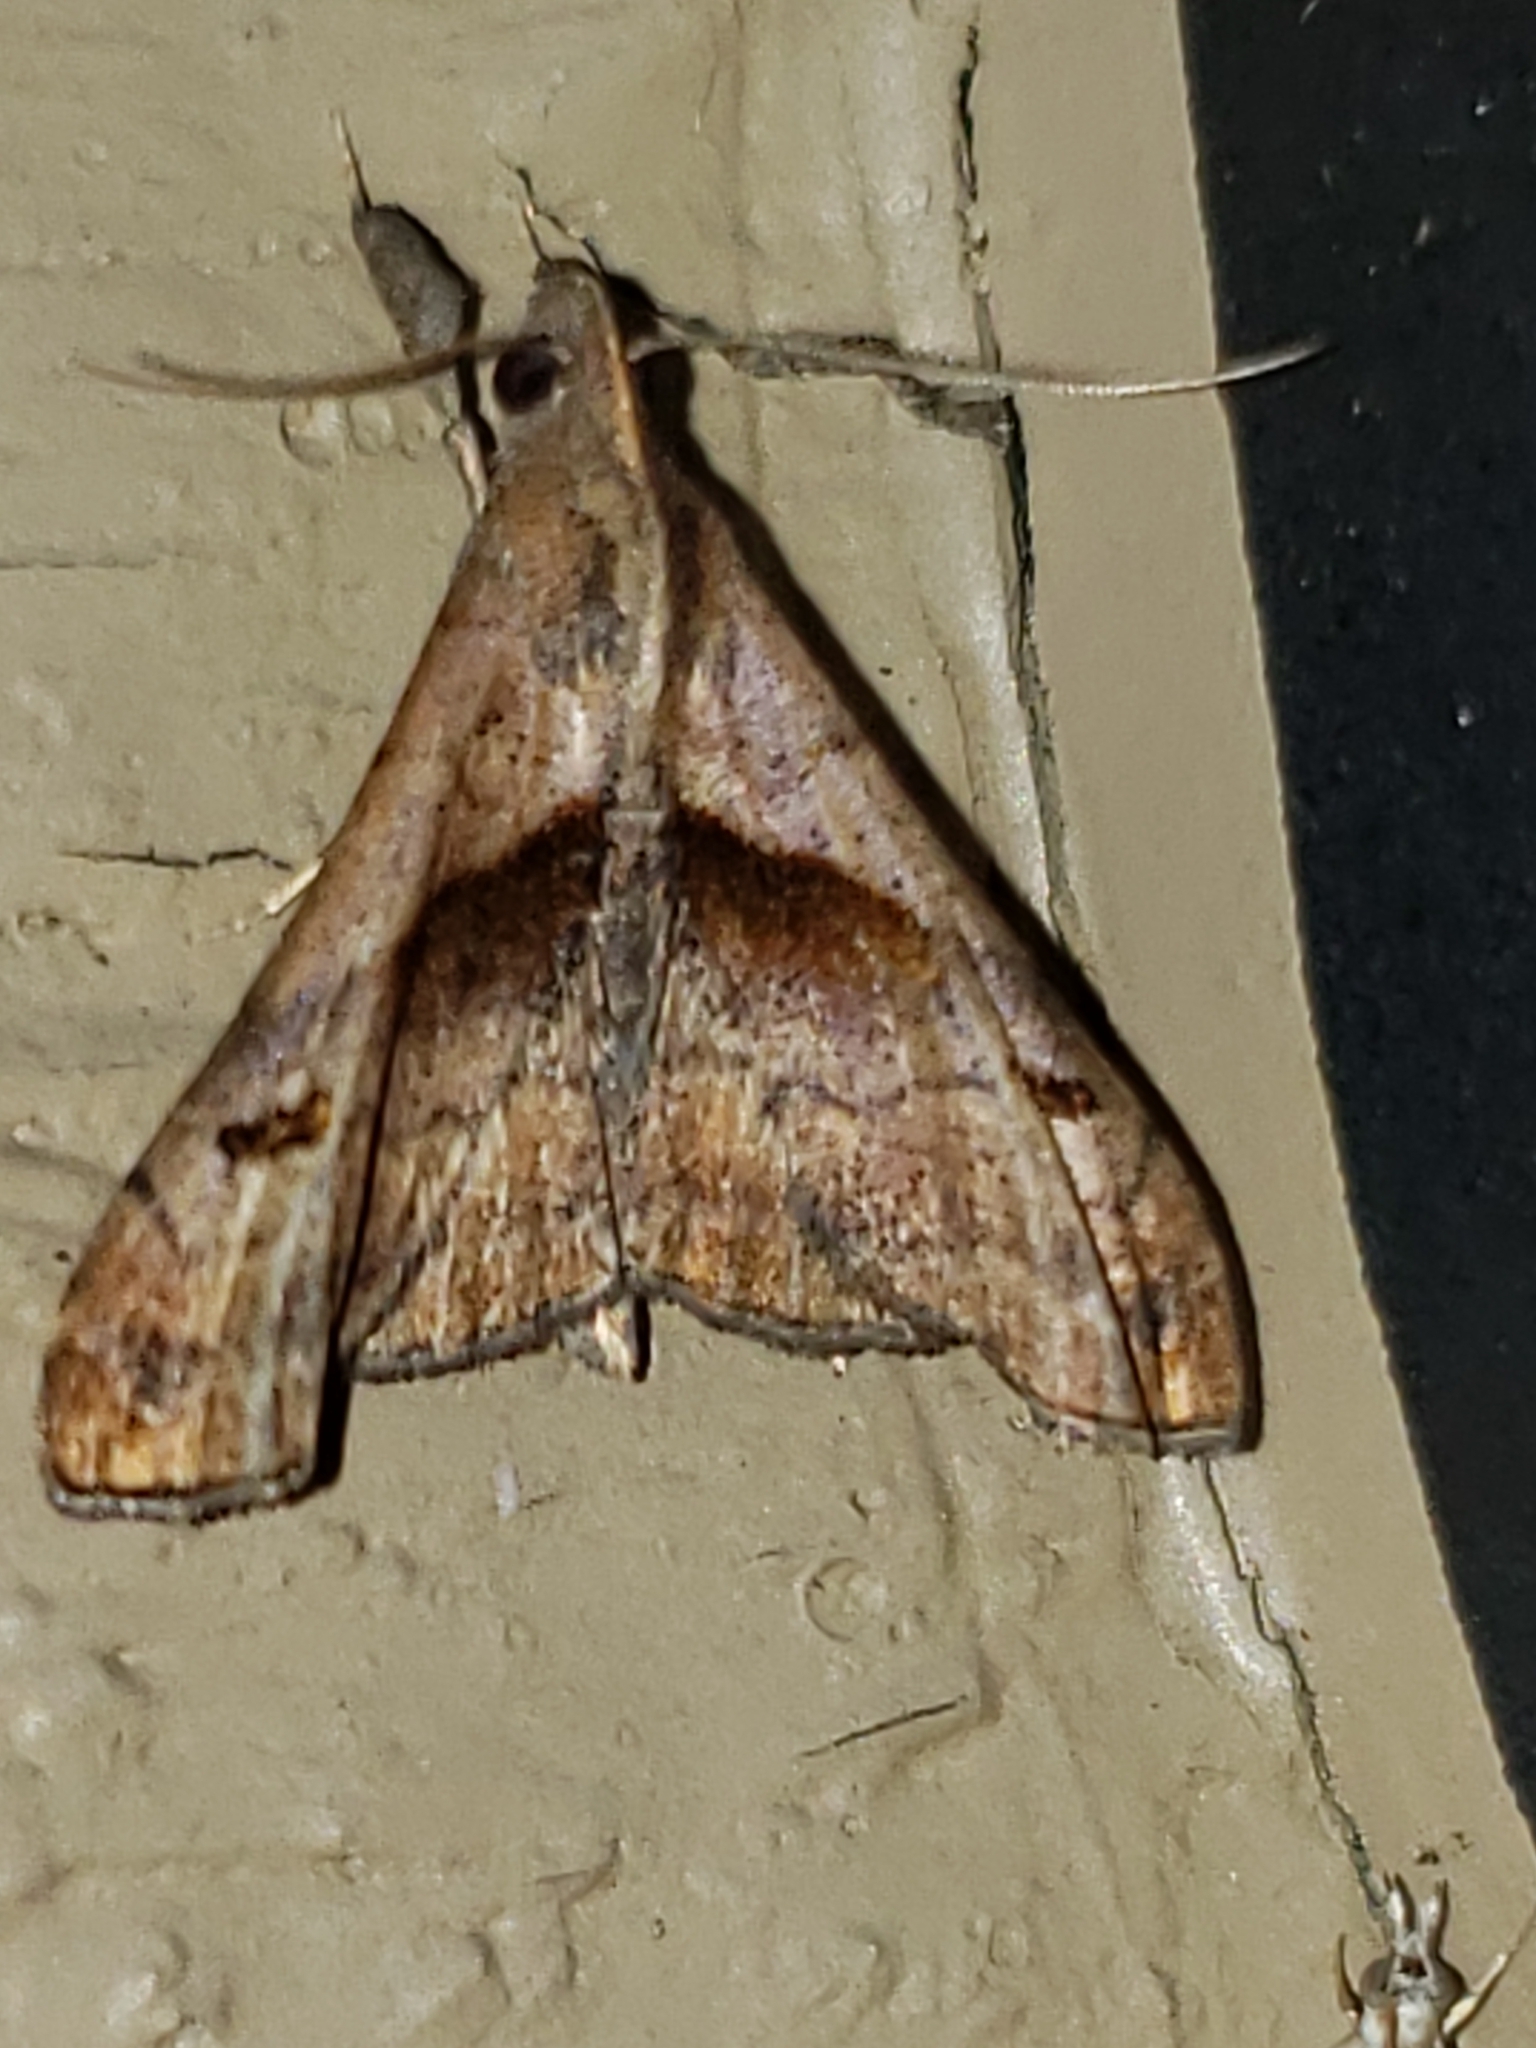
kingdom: Animalia
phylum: Arthropoda
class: Insecta
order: Lepidoptera
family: Erebidae
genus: Palthis
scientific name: Palthis angulalis
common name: Dark-spotted palthis moth
